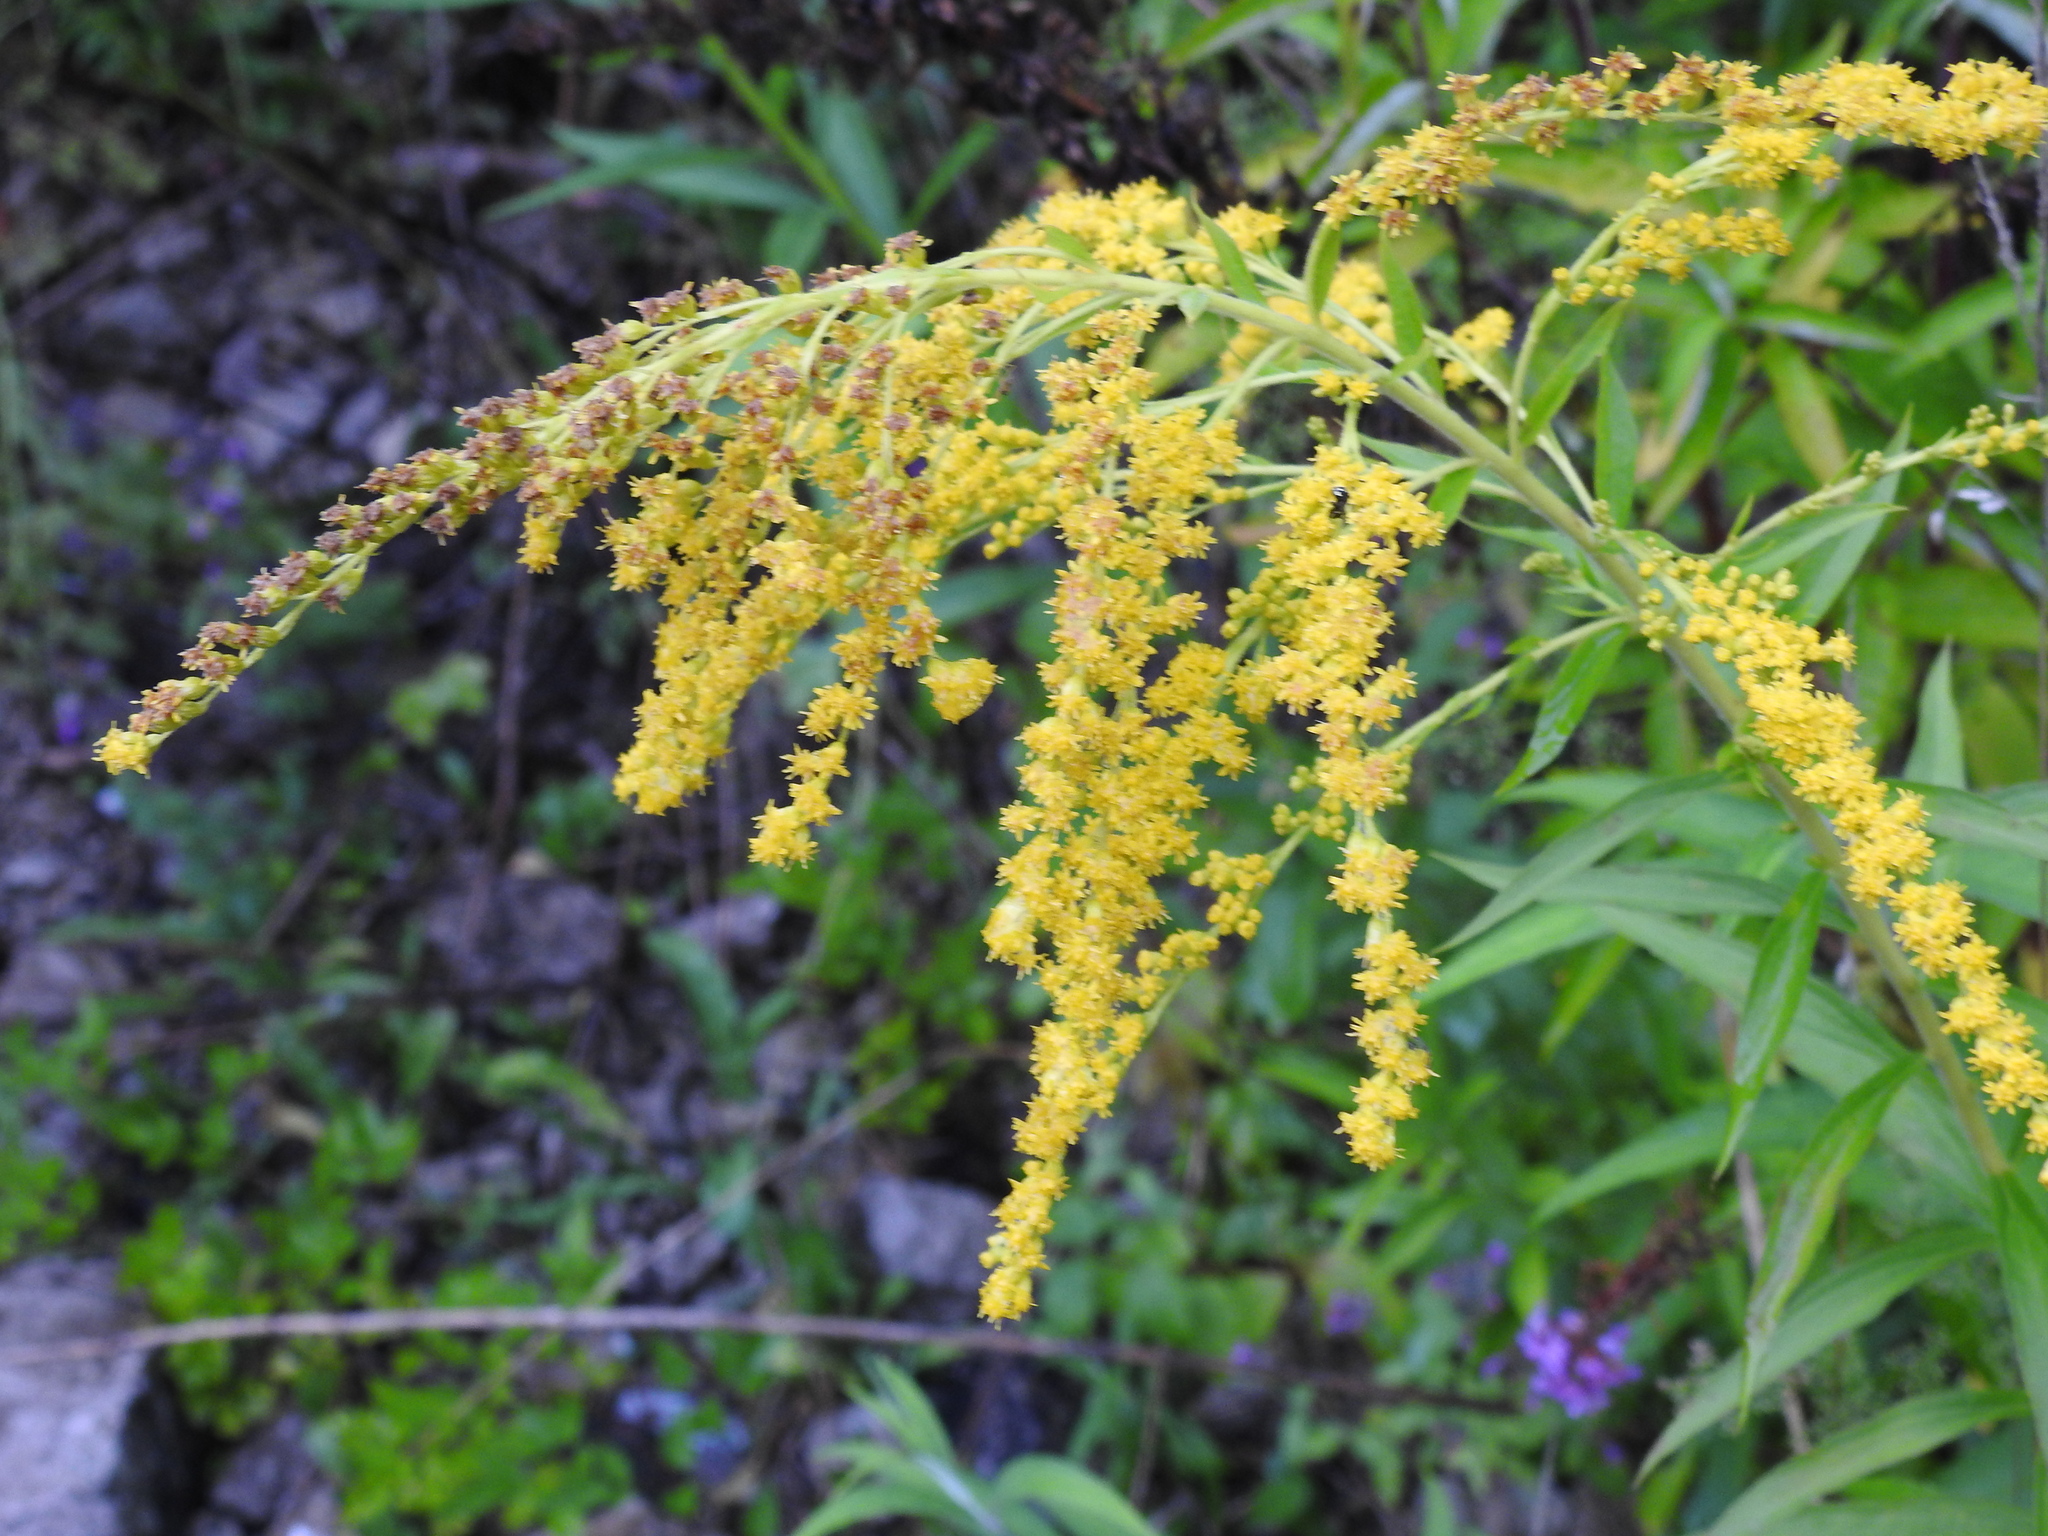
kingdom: Plantae
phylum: Tracheophyta
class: Magnoliopsida
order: Asterales
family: Asteraceae
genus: Solidago
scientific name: Solidago canadensis
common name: Canada goldenrod
